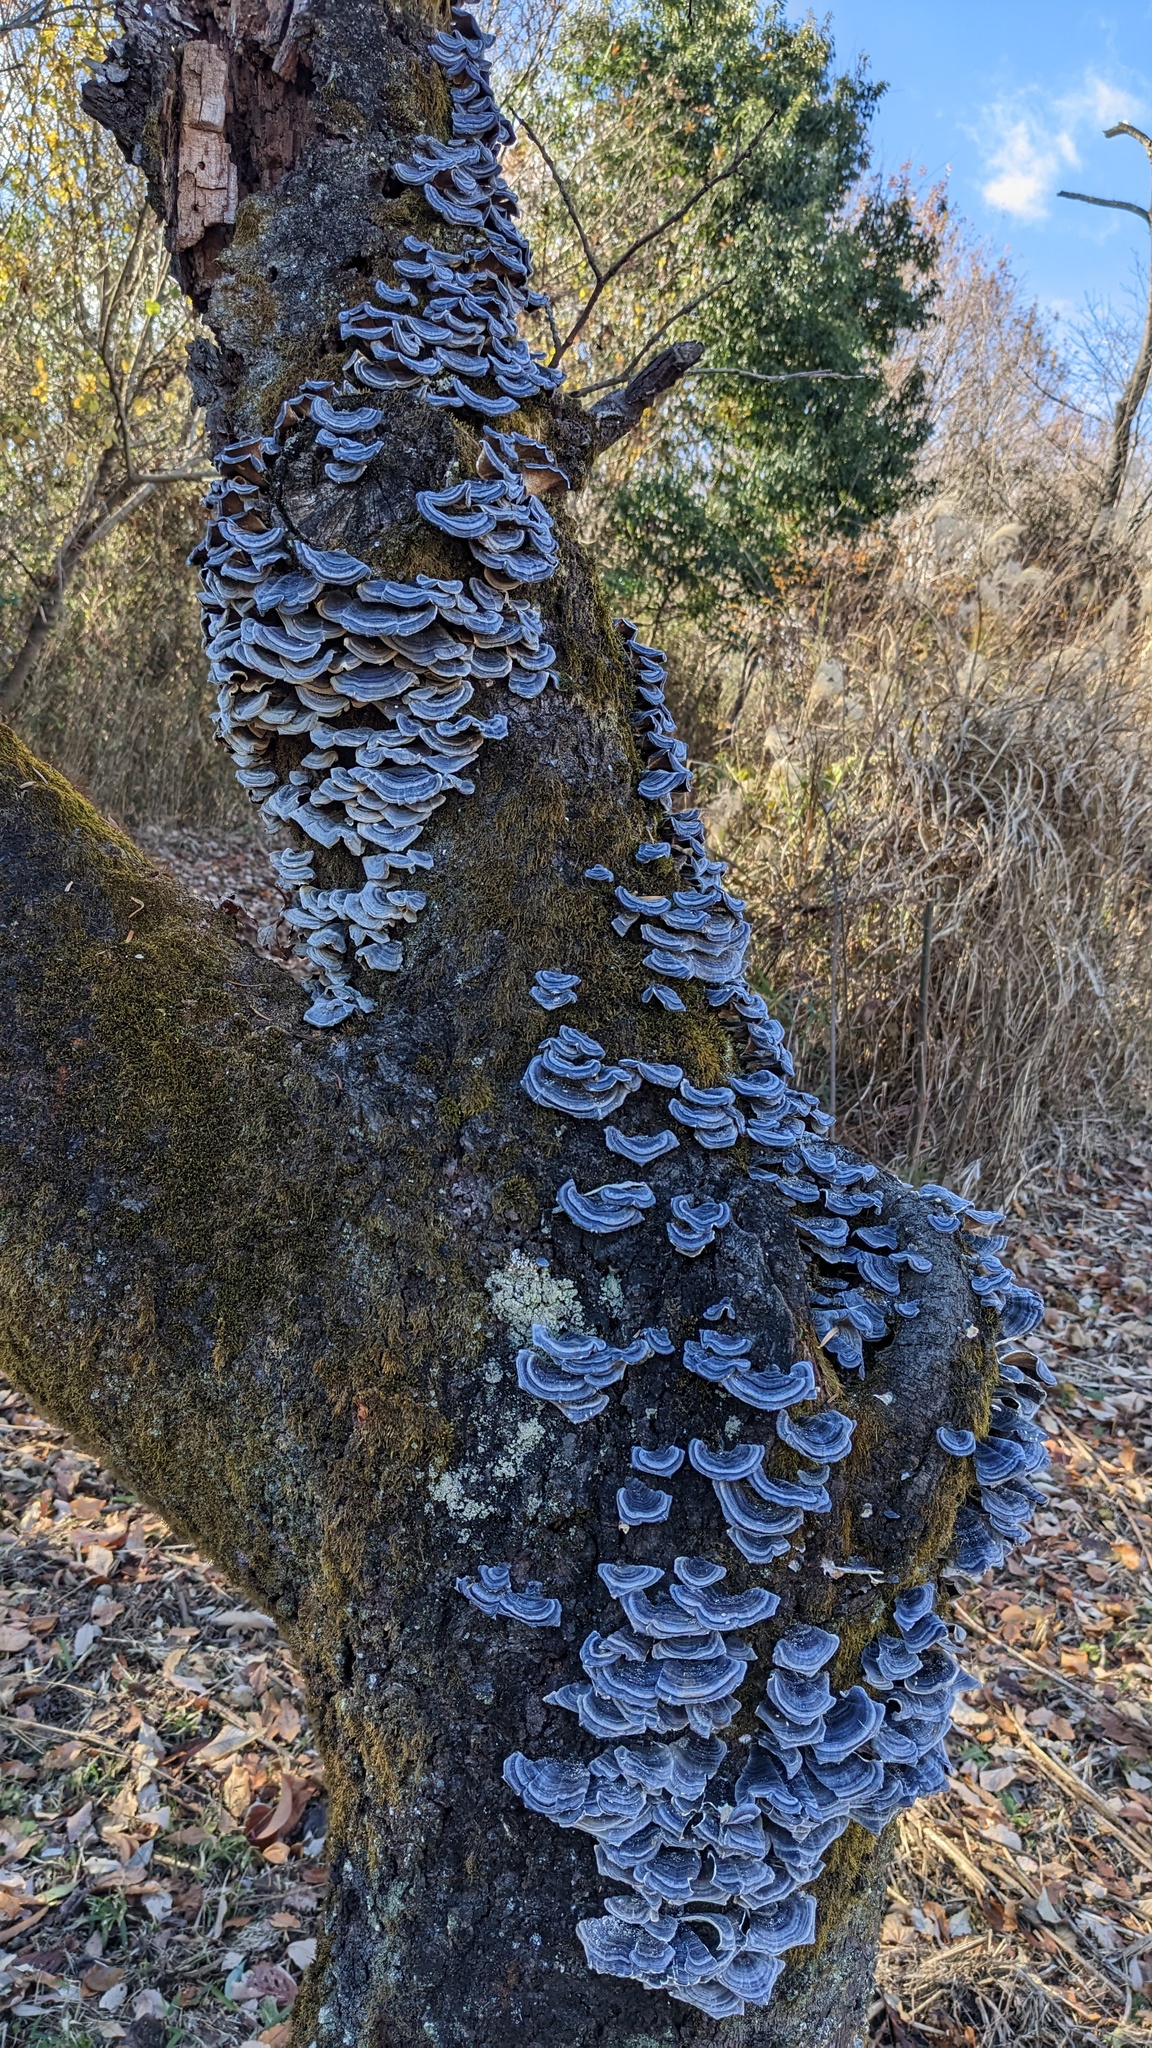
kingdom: Fungi
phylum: Basidiomycota
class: Agaricomycetes
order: Polyporales
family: Polyporaceae
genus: Trametes
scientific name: Trametes versicolor
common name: Turkeytail
